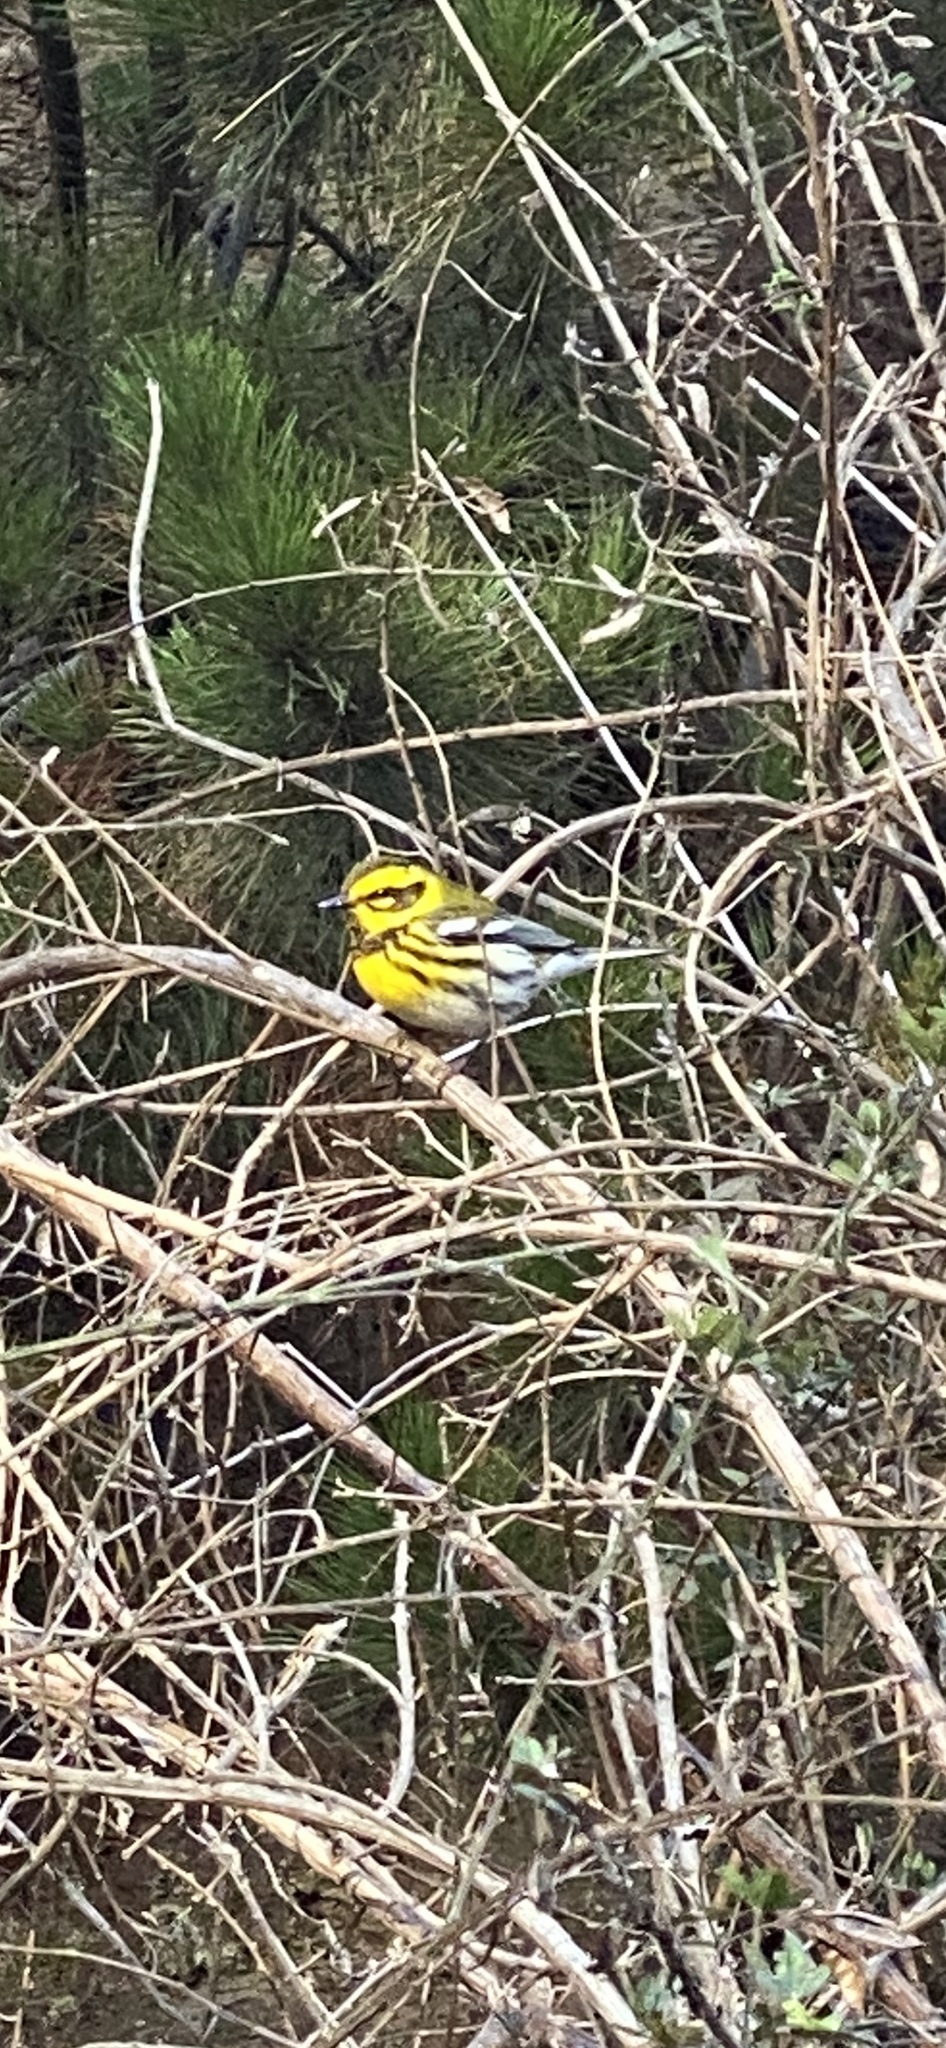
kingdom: Animalia
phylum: Chordata
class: Aves
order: Passeriformes
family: Parulidae
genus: Setophaga
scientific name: Setophaga townsendi
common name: Townsend's warbler
